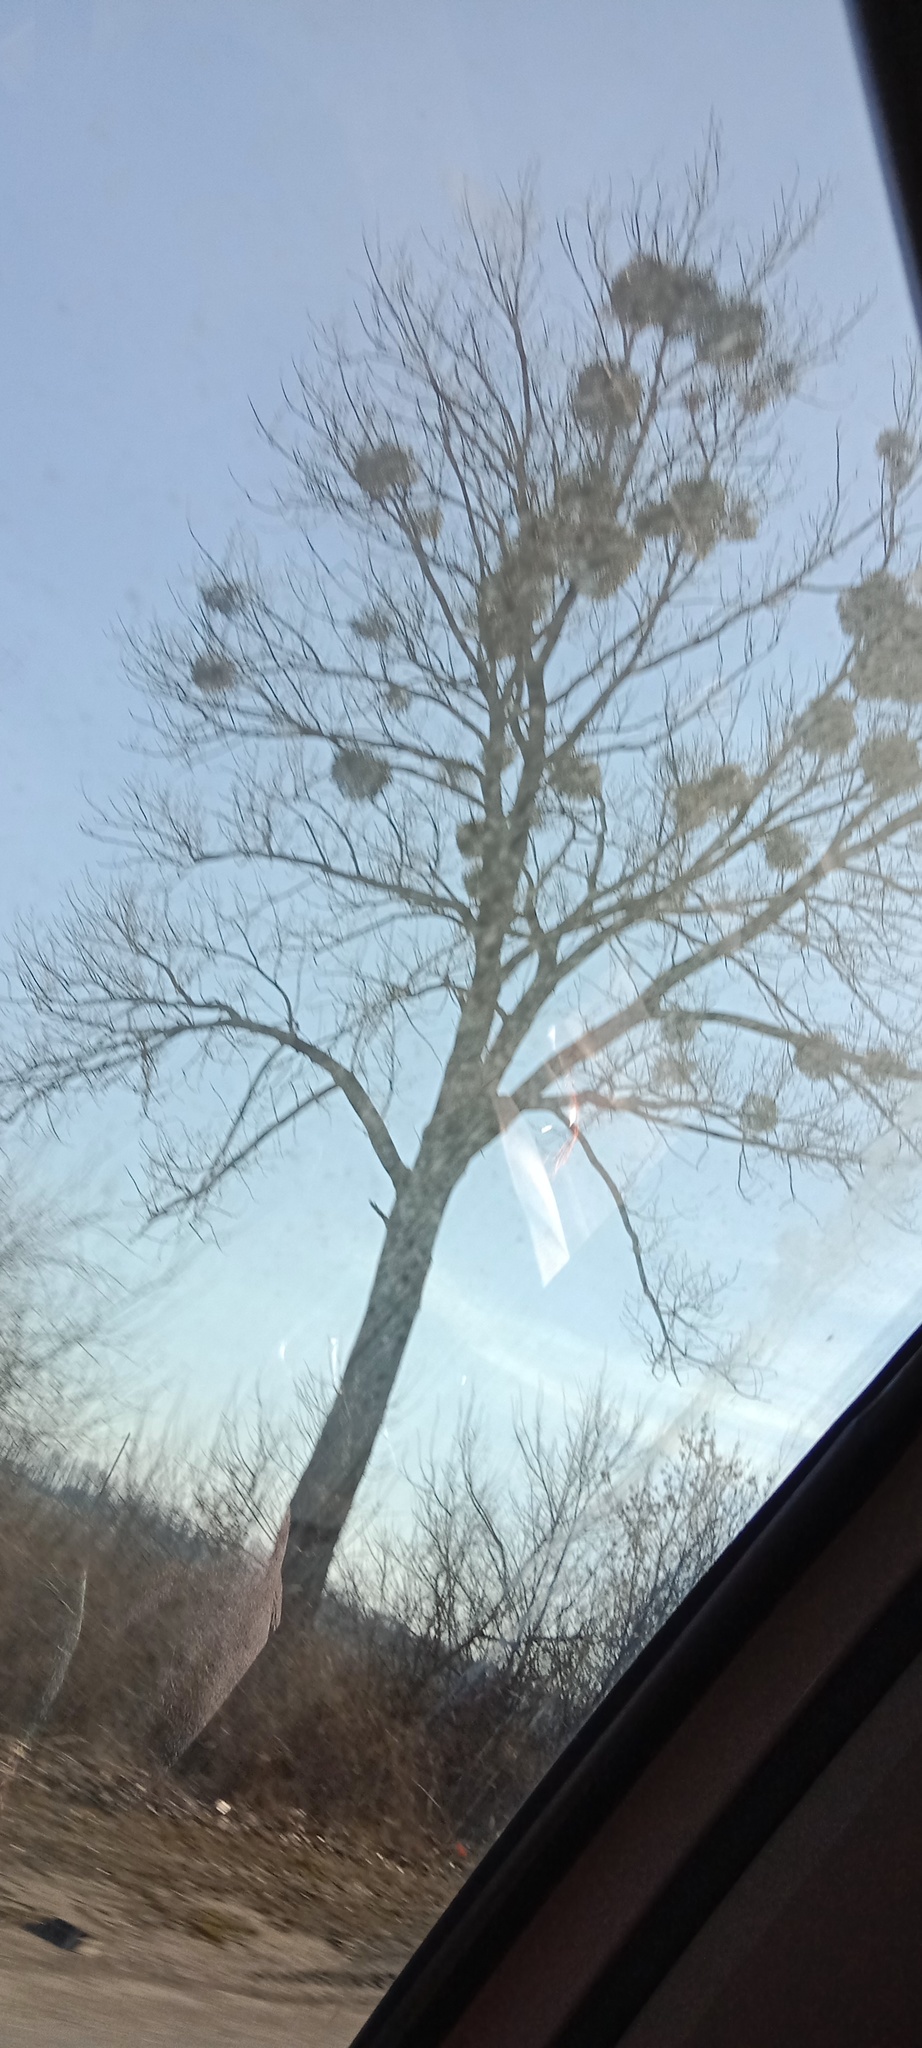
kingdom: Plantae
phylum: Tracheophyta
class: Magnoliopsida
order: Santalales
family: Viscaceae
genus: Viscum
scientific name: Viscum album
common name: Mistletoe
